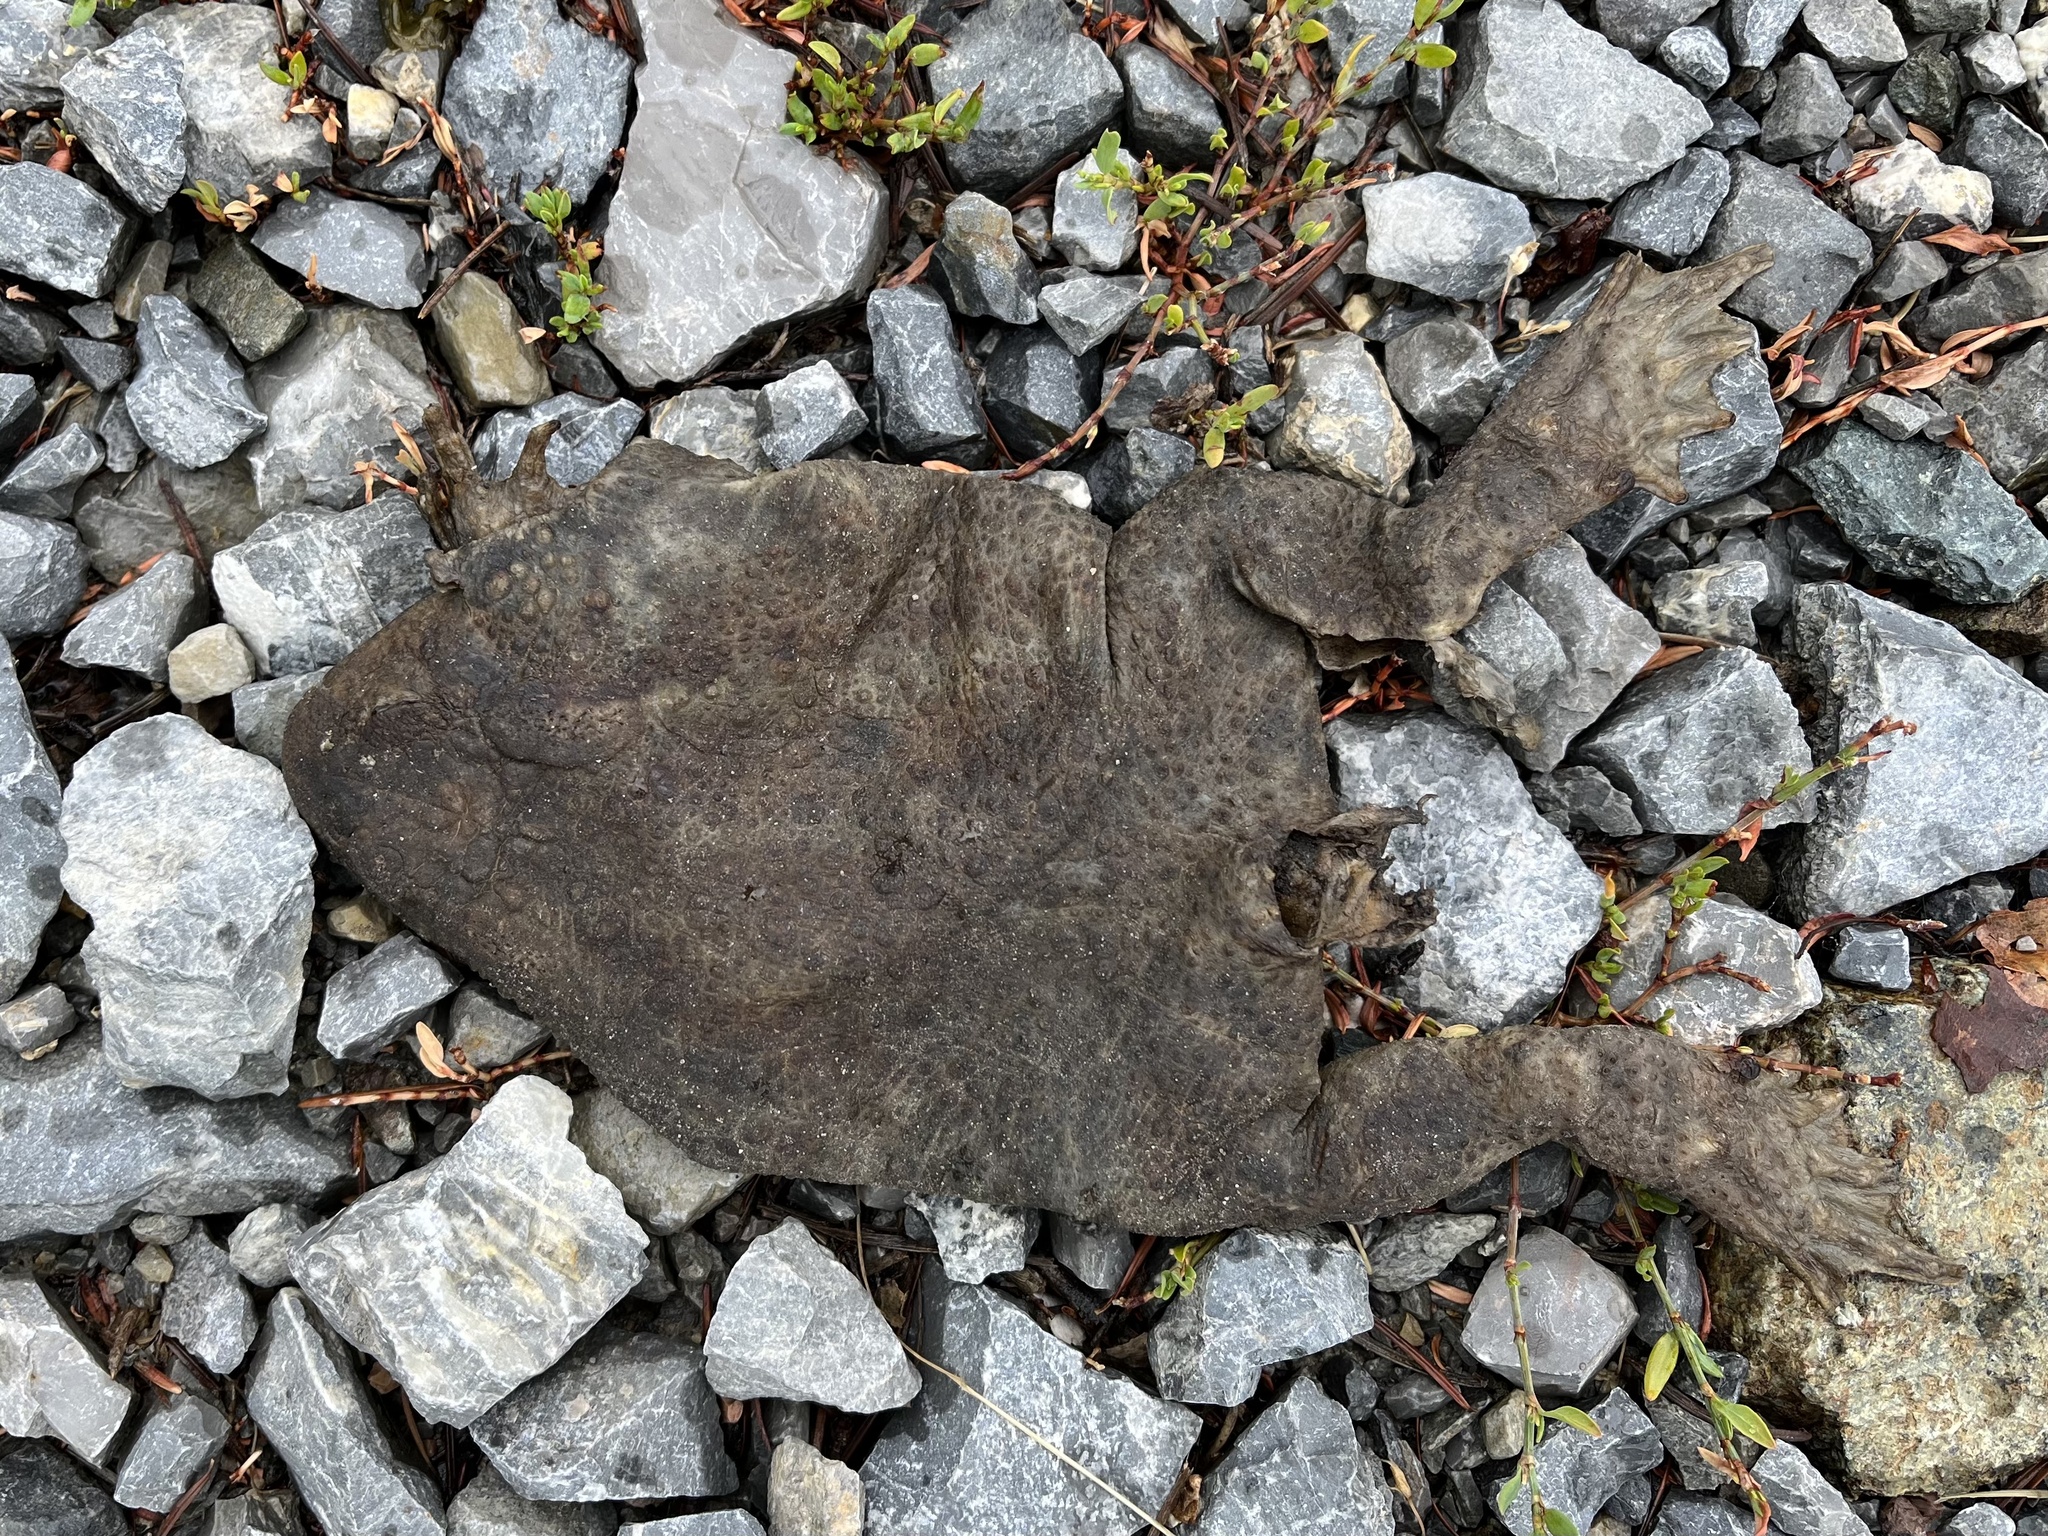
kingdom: Animalia
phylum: Chordata
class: Amphibia
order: Anura
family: Bufonidae
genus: Bufo
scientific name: Bufo bufo
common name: Common toad
